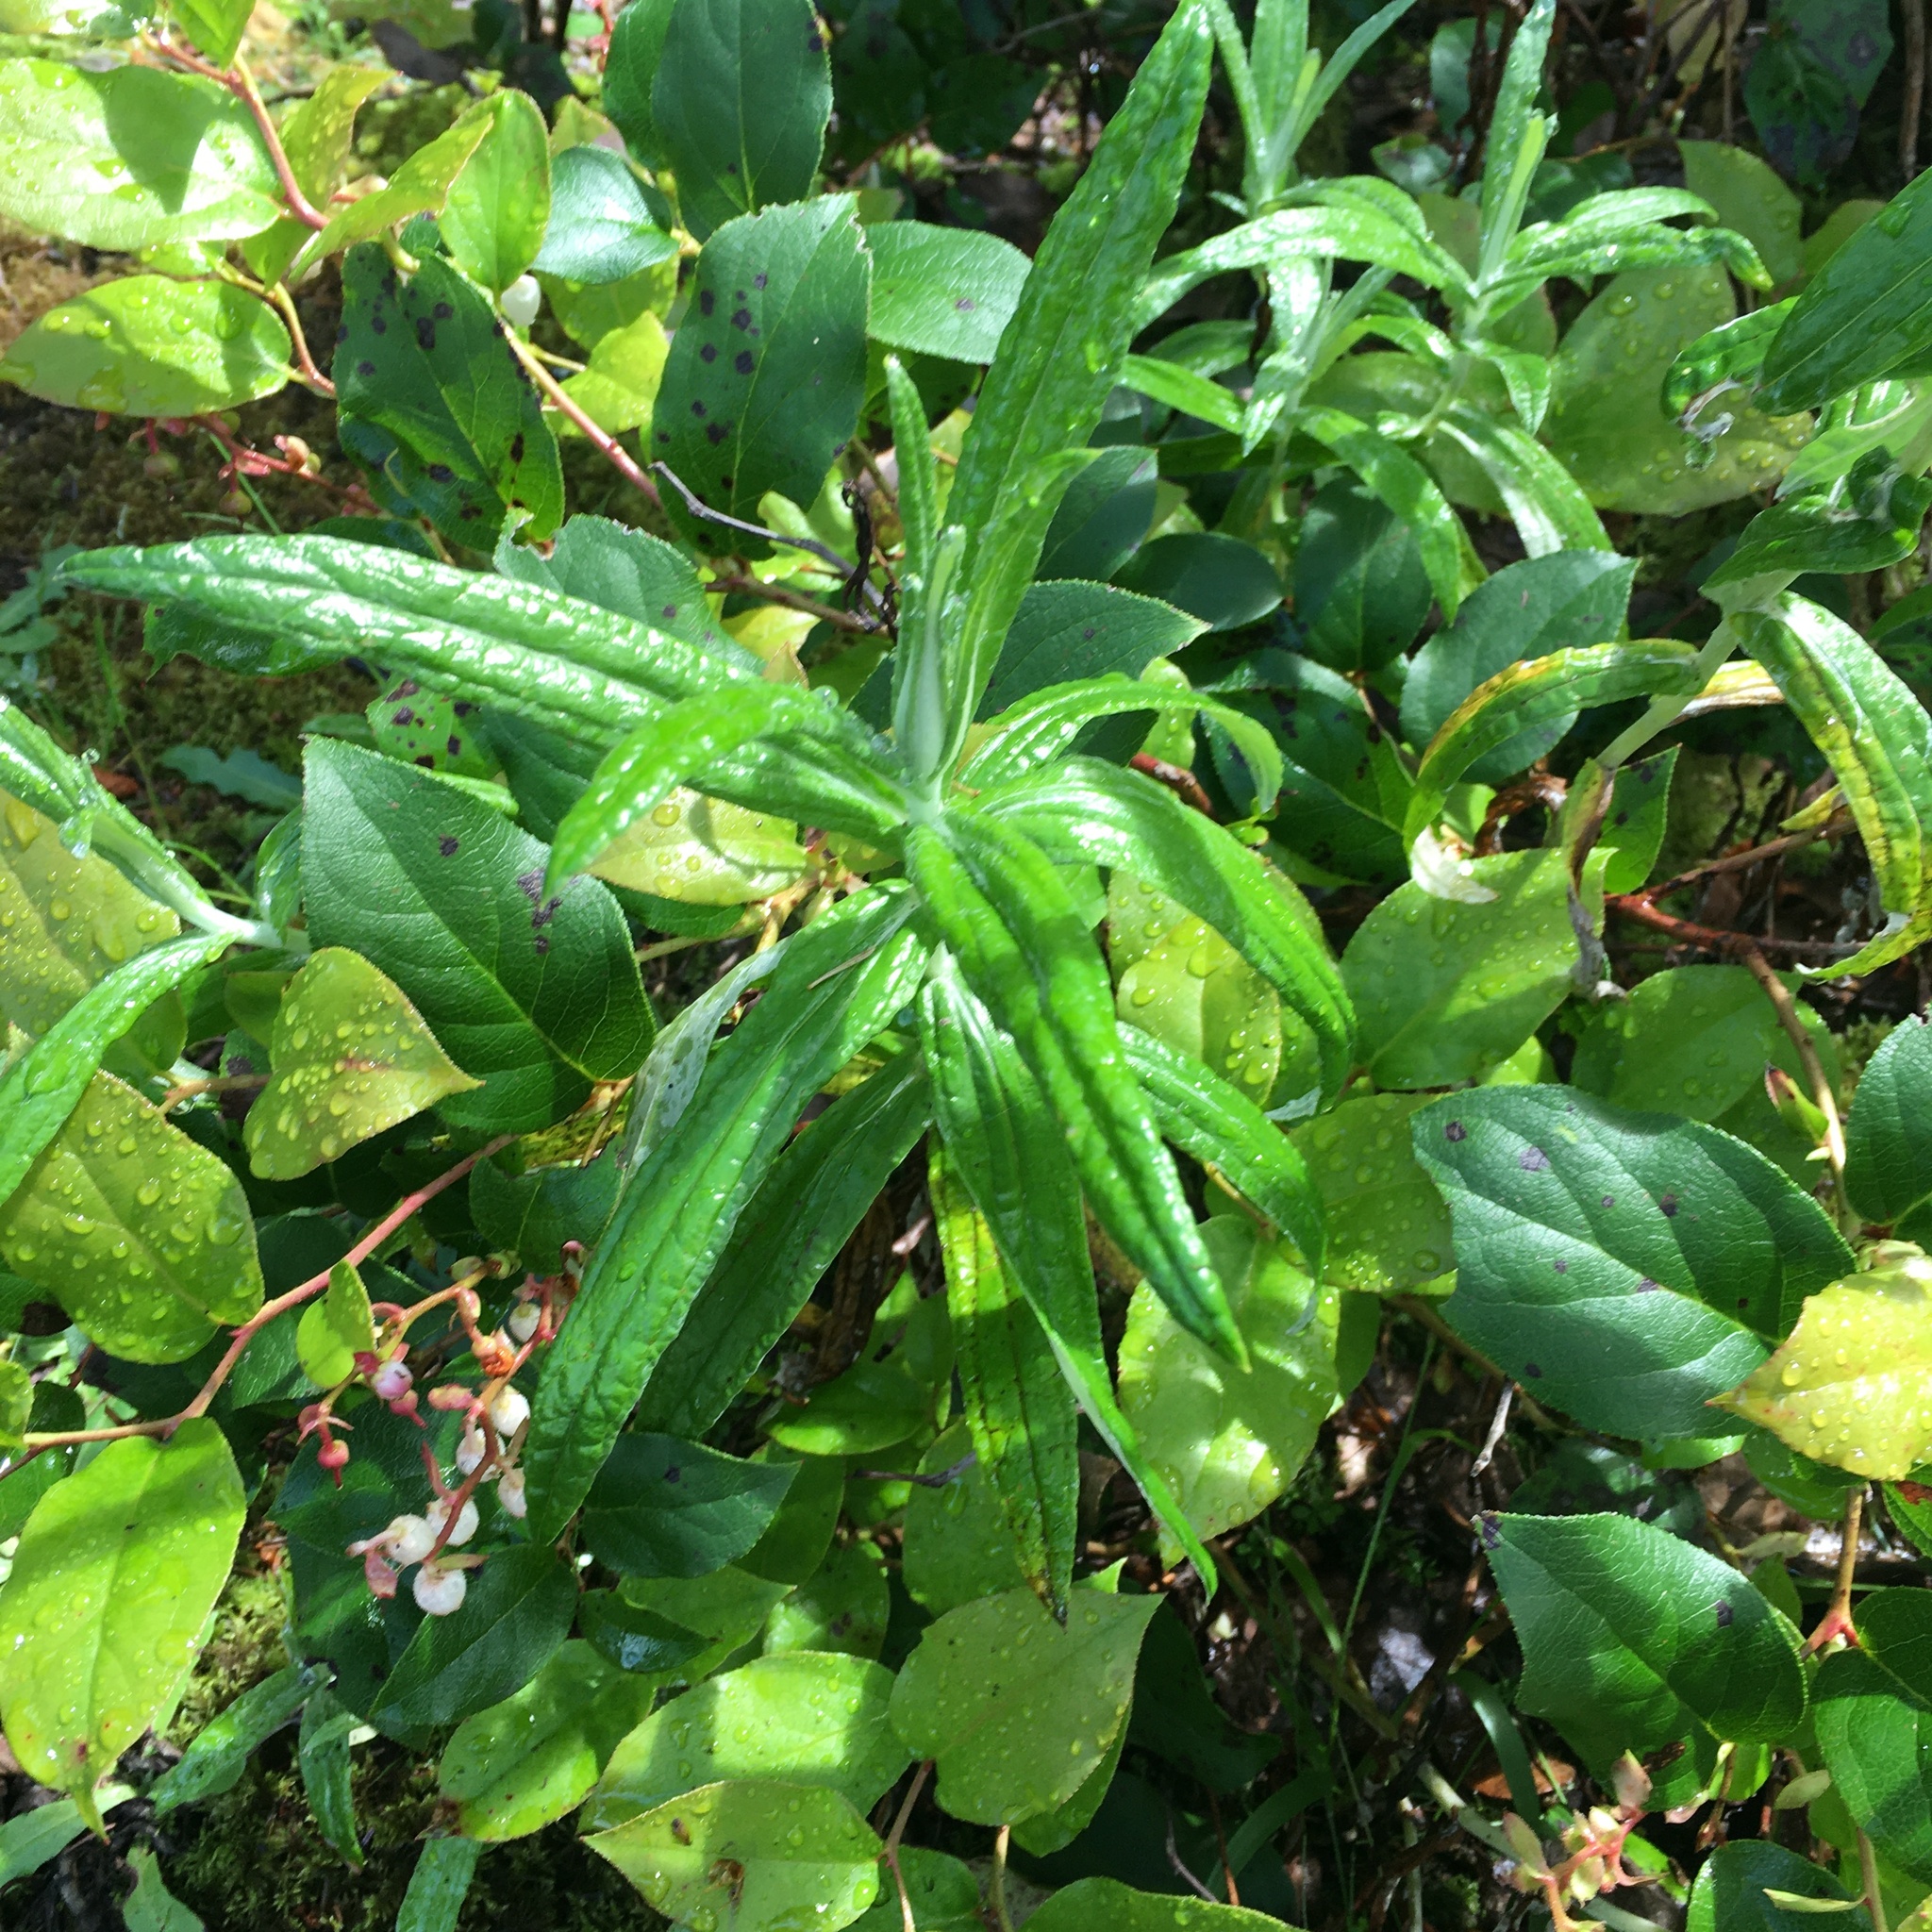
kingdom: Plantae
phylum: Tracheophyta
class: Magnoliopsida
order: Asterales
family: Asteraceae
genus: Anaphalis
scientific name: Anaphalis margaritacea
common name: Pearly everlasting
